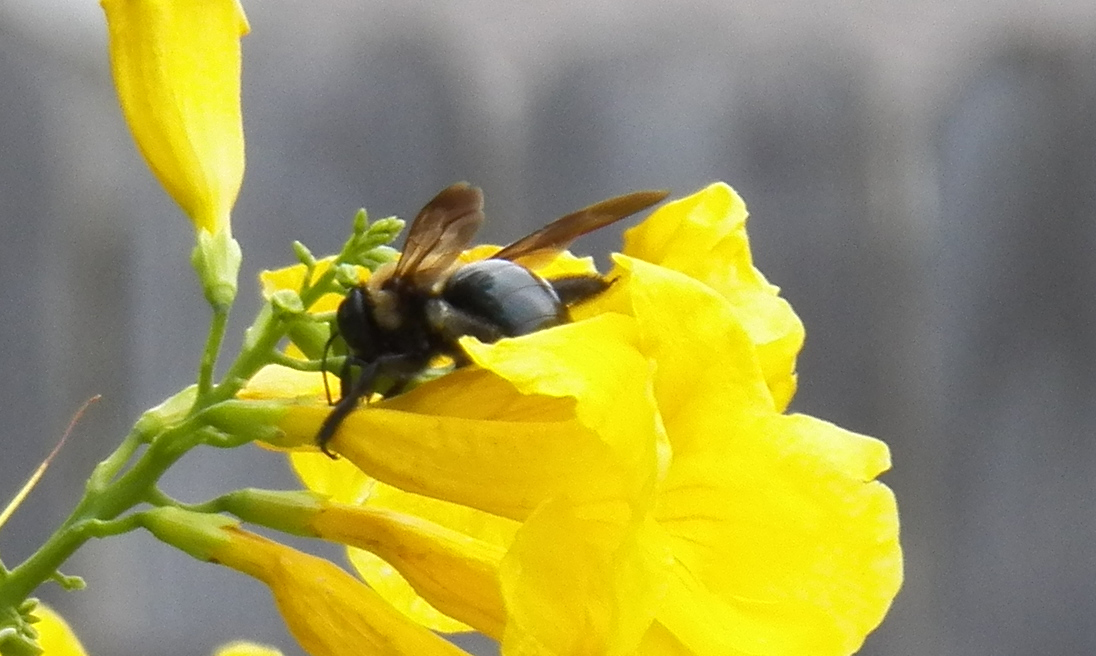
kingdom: Animalia
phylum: Arthropoda
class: Insecta
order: Hymenoptera
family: Apidae
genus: Xylocopa
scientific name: Xylocopa virginica
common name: Carpenter bee
